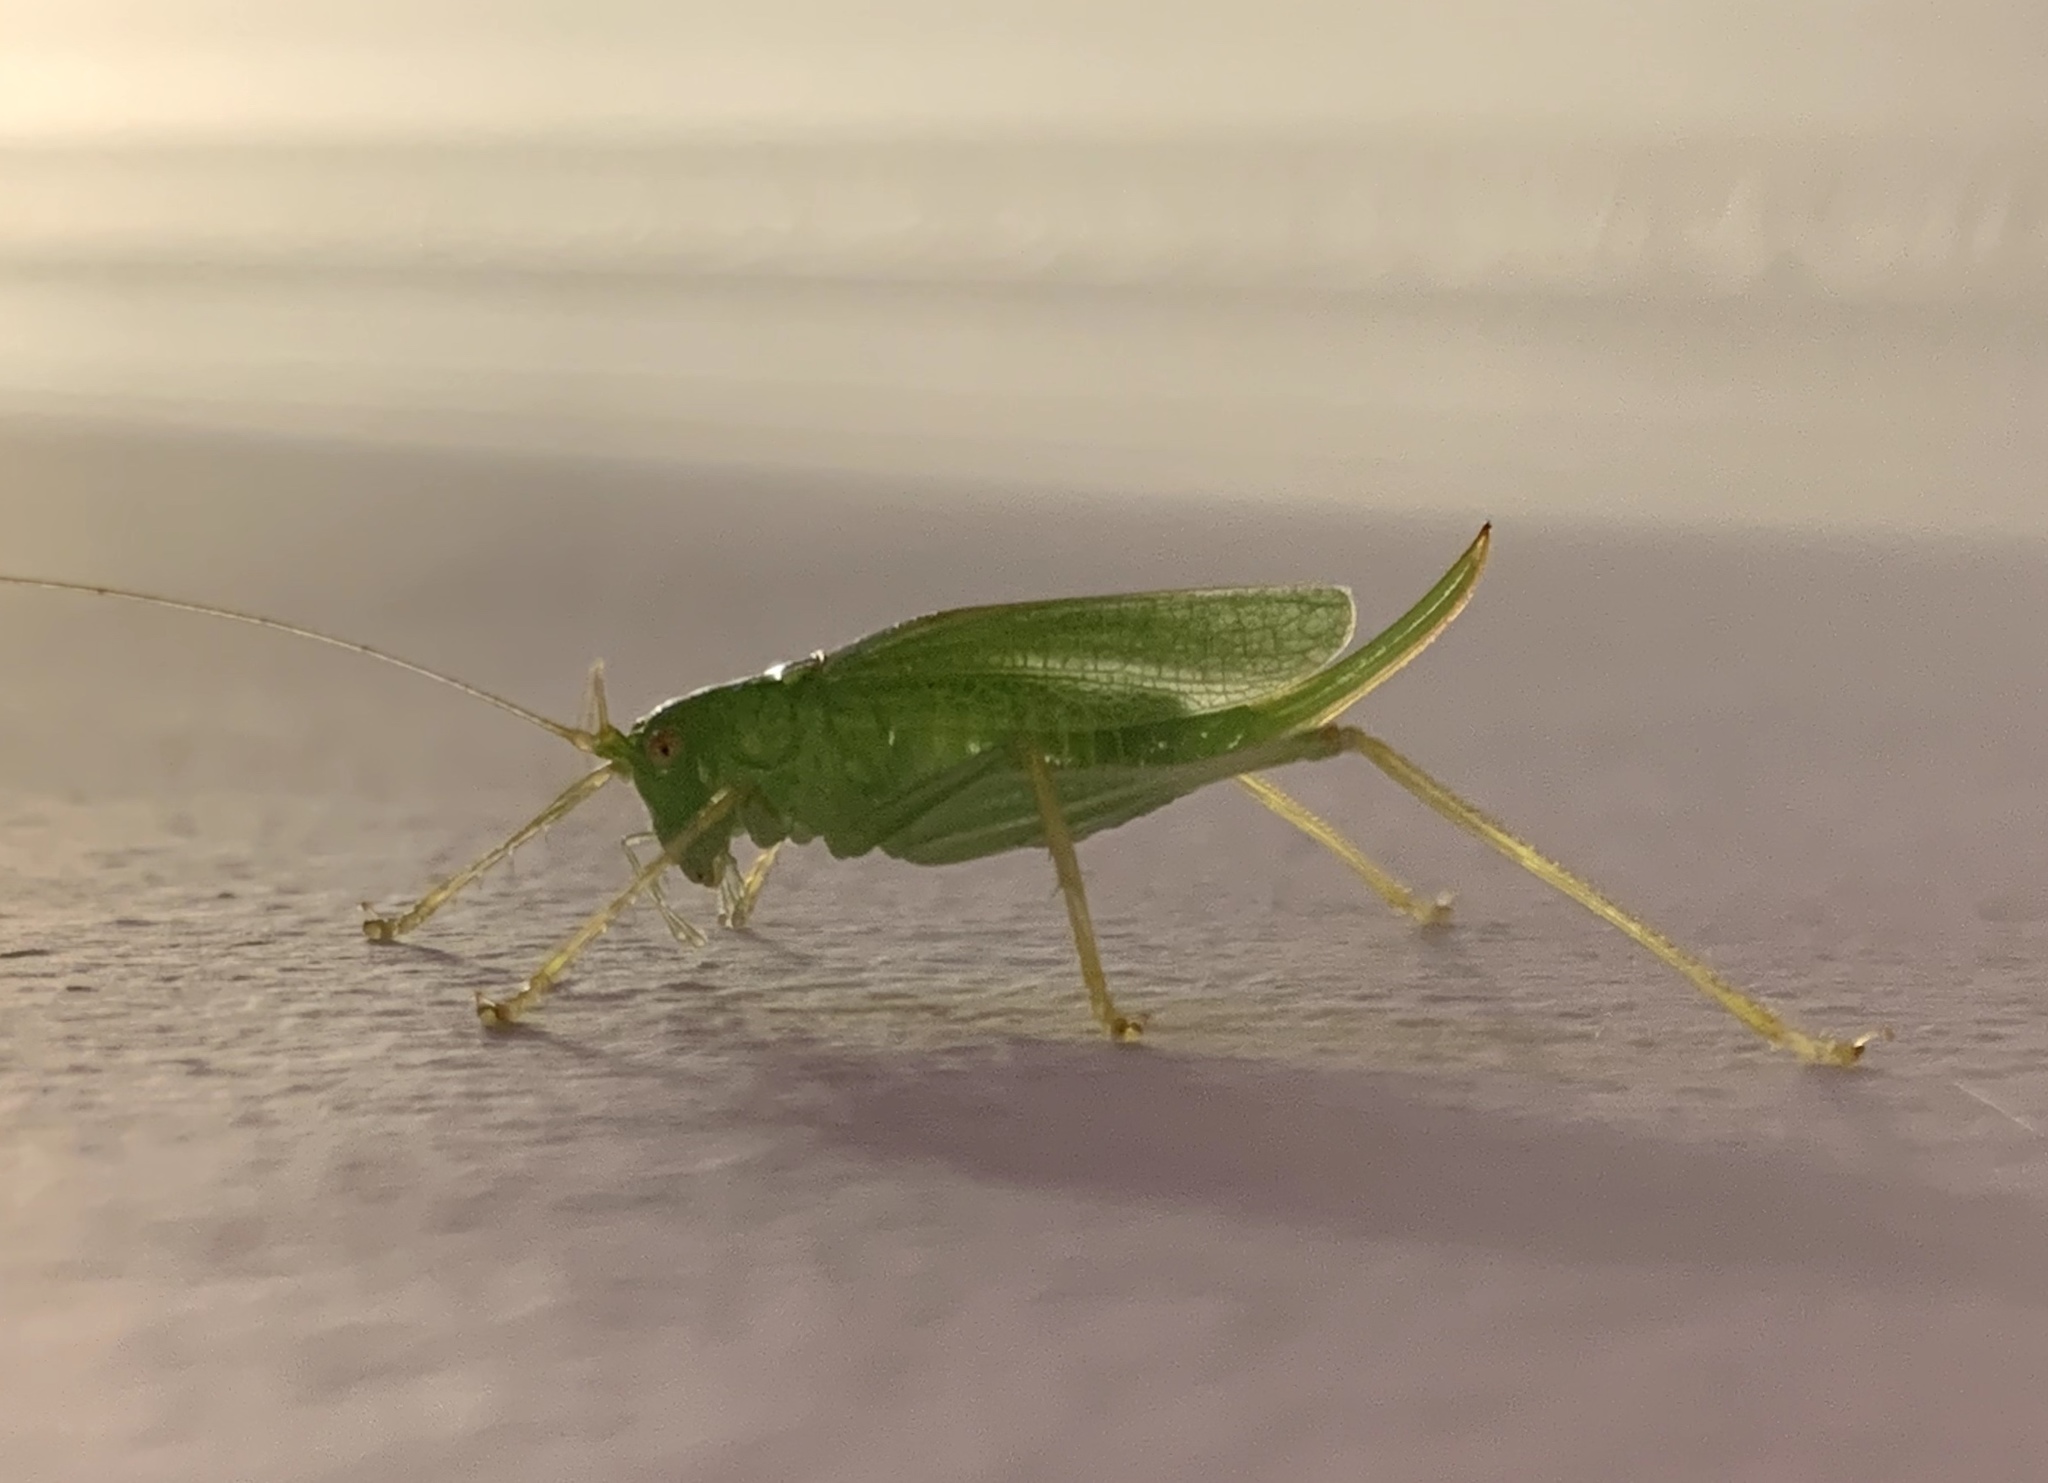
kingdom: Animalia
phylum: Arthropoda
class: Insecta
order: Orthoptera
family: Tettigoniidae
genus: Meconema
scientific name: Meconema thalassinum
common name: Oak bush-cricket
